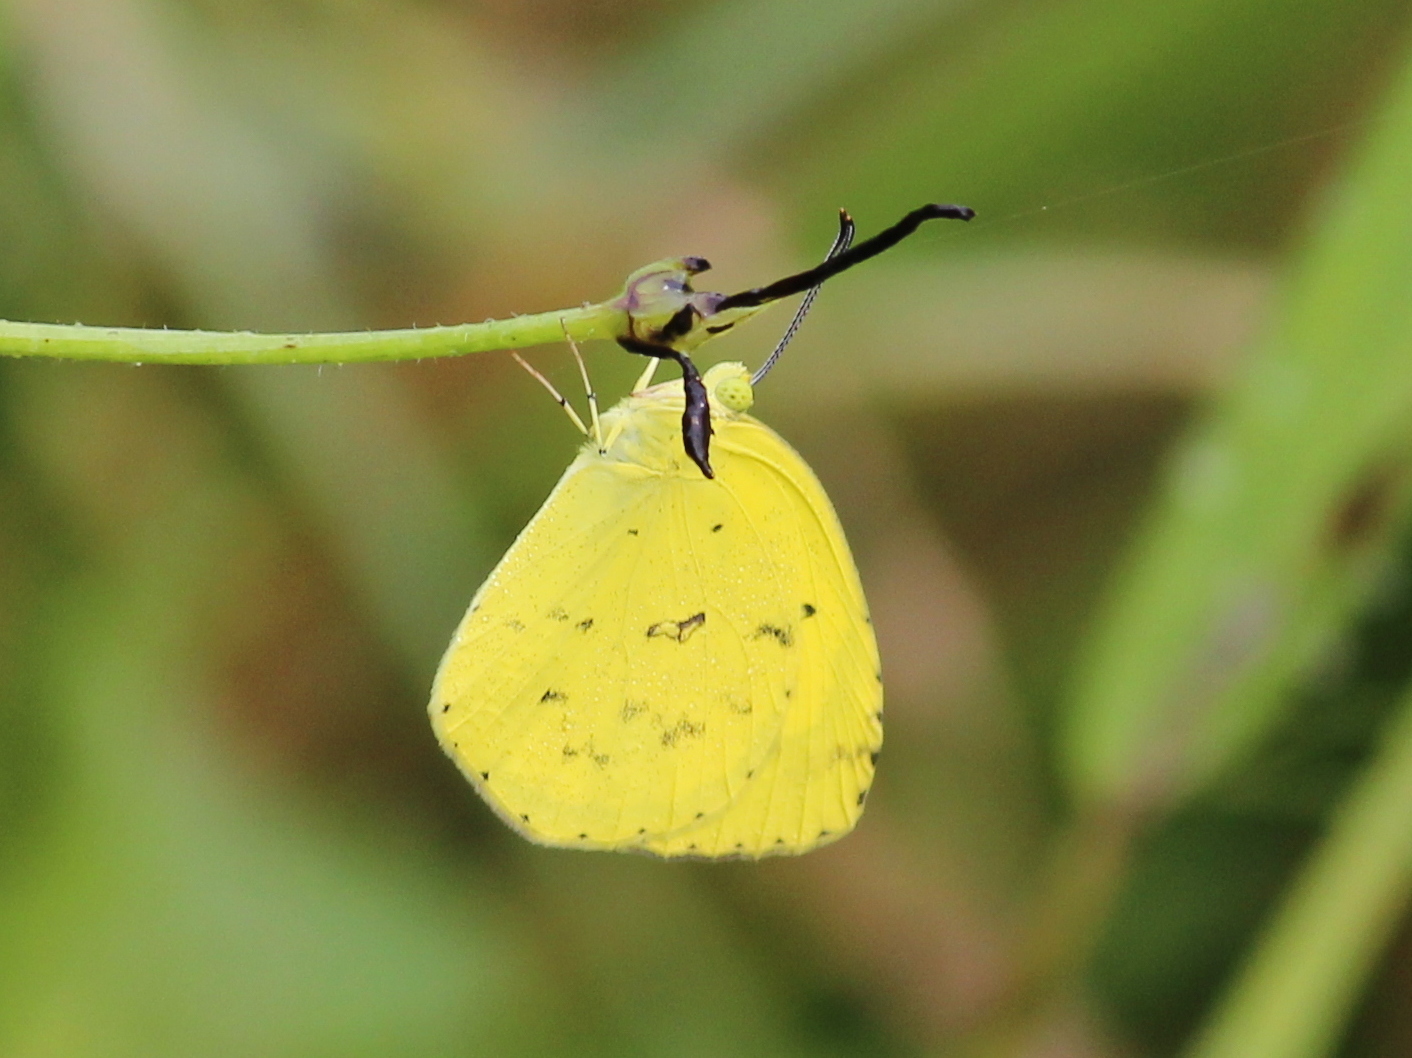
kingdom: Animalia
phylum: Arthropoda
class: Insecta
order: Lepidoptera
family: Pieridae
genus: Eurema
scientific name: Eurema hecabe
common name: Pale grass yellow
